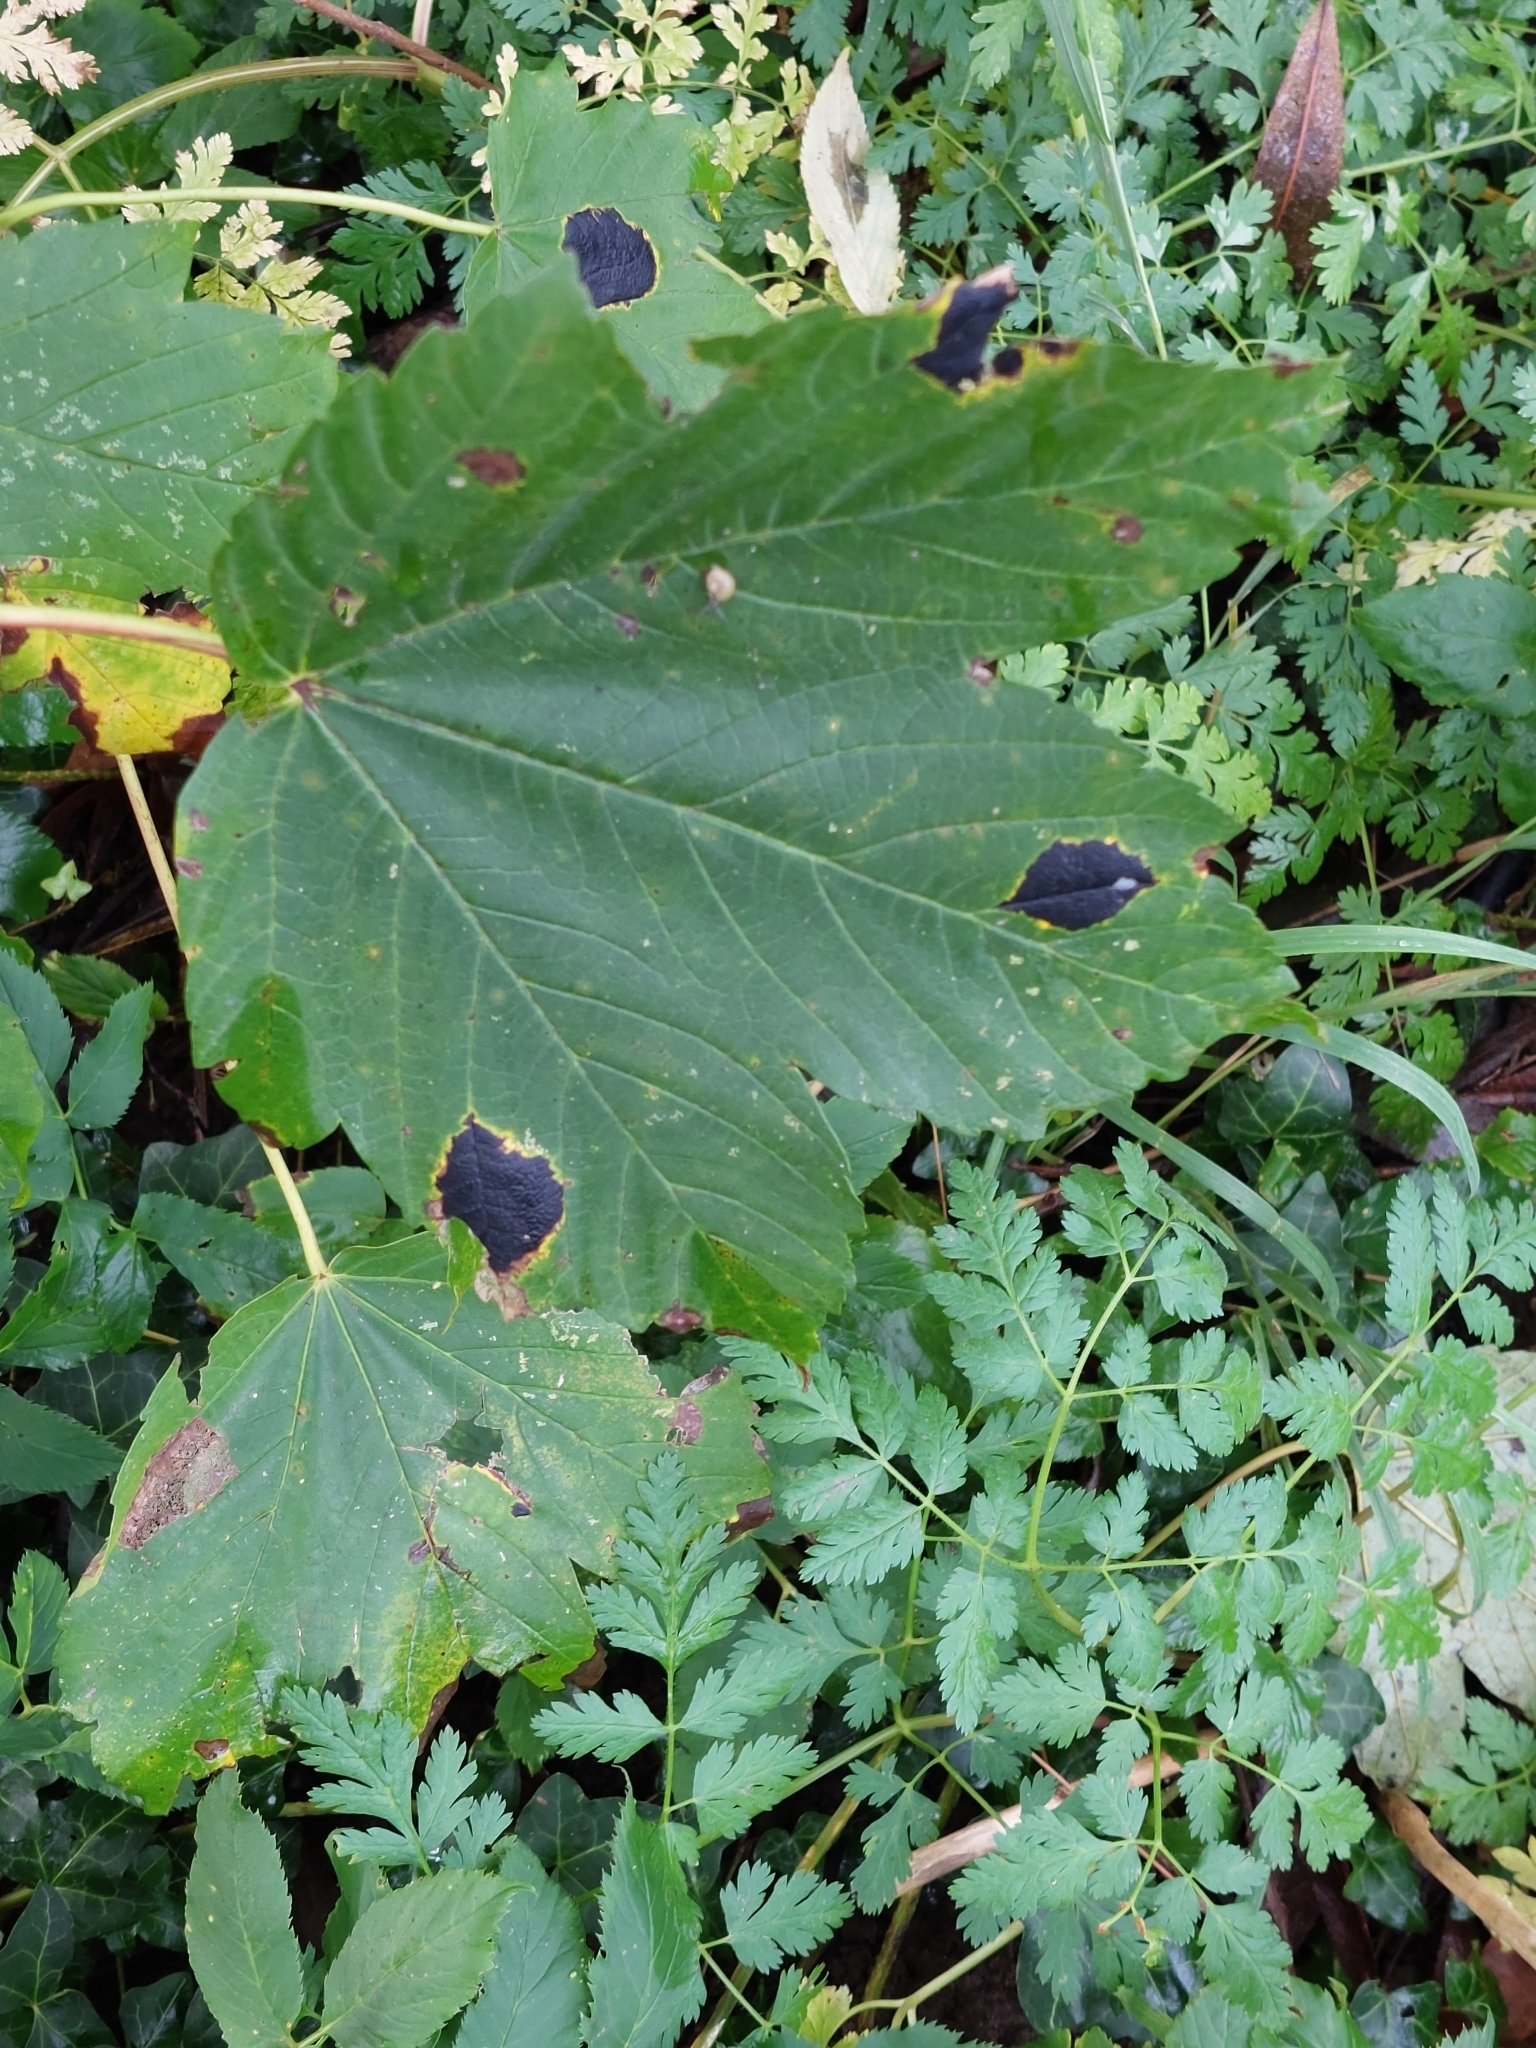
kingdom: Fungi
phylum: Ascomycota
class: Leotiomycetes
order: Rhytismatales
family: Rhytismataceae
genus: Rhytisma
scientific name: Rhytisma acerinum
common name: European tar spot
